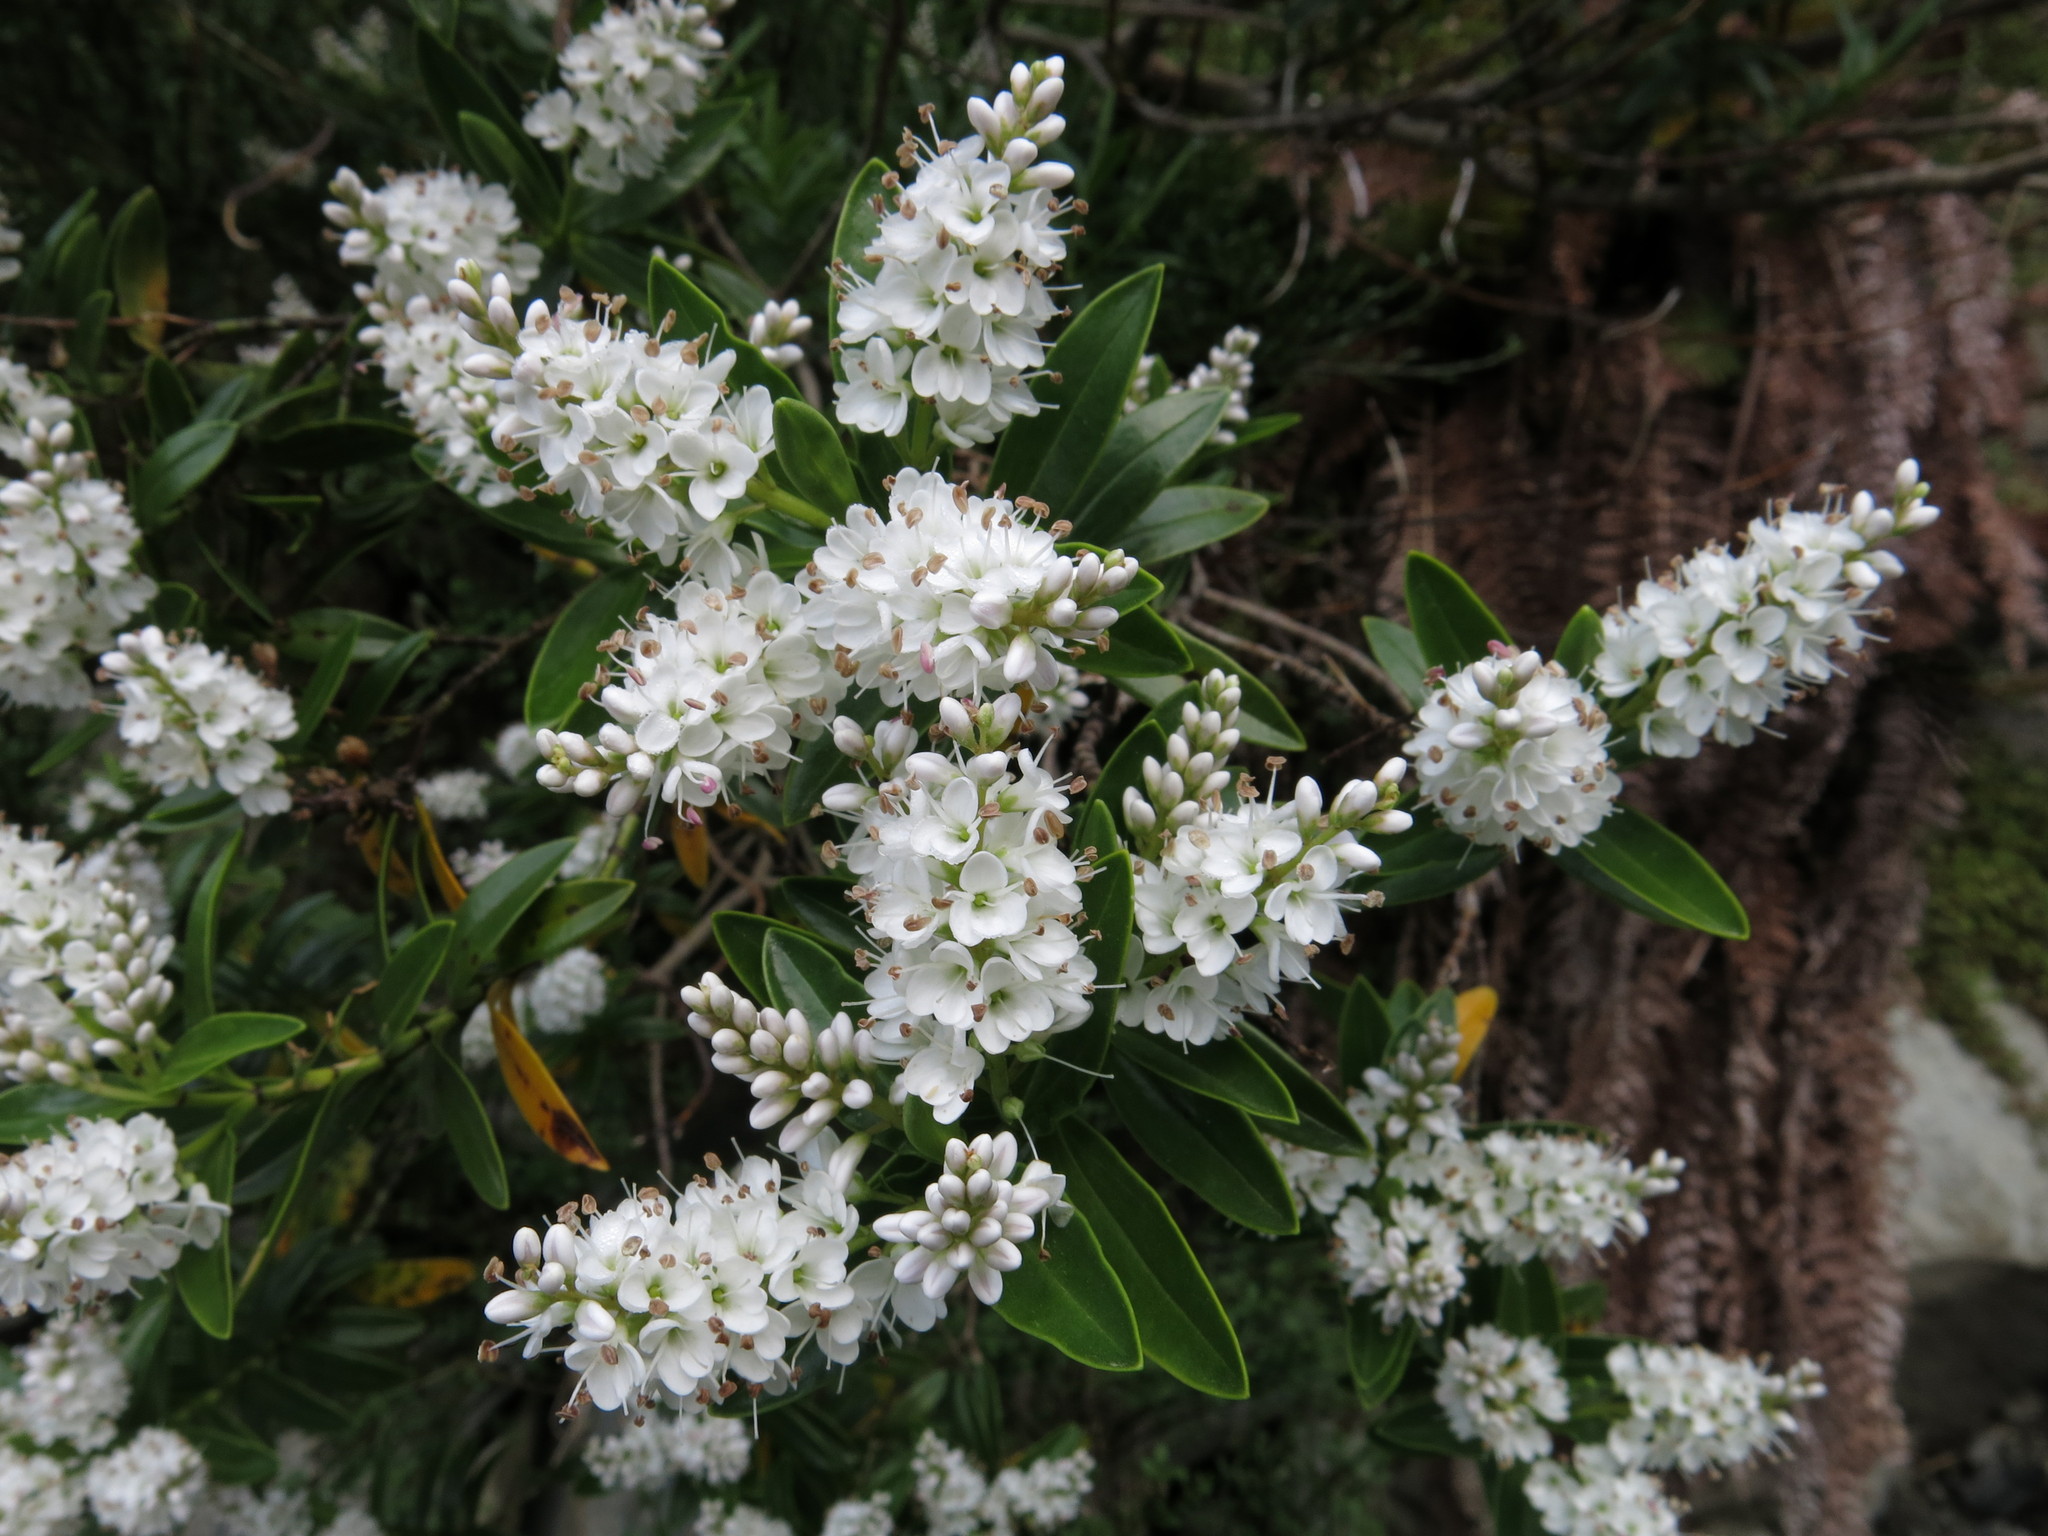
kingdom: Plantae
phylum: Tracheophyta
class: Magnoliopsida
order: Lamiales
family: Plantaginaceae
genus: Veronica
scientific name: Veronica subalpina
